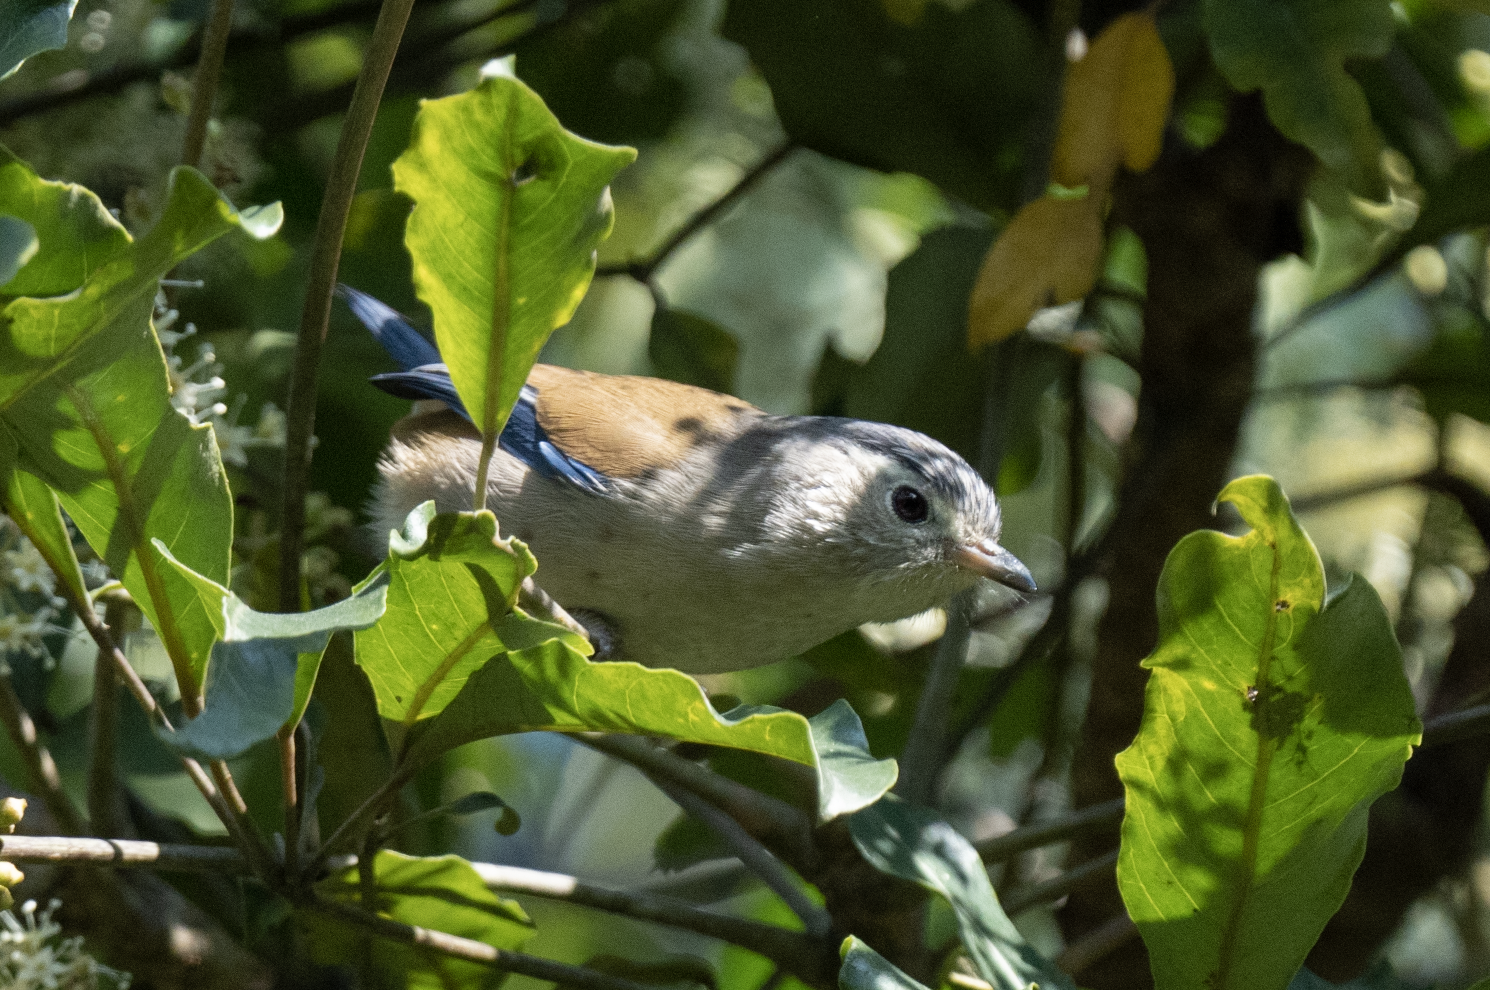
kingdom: Animalia
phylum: Chordata
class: Aves
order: Passeriformes
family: Leiothrichidae
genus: Minla
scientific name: Minla cyanouroptera
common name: Blue-winged minla
